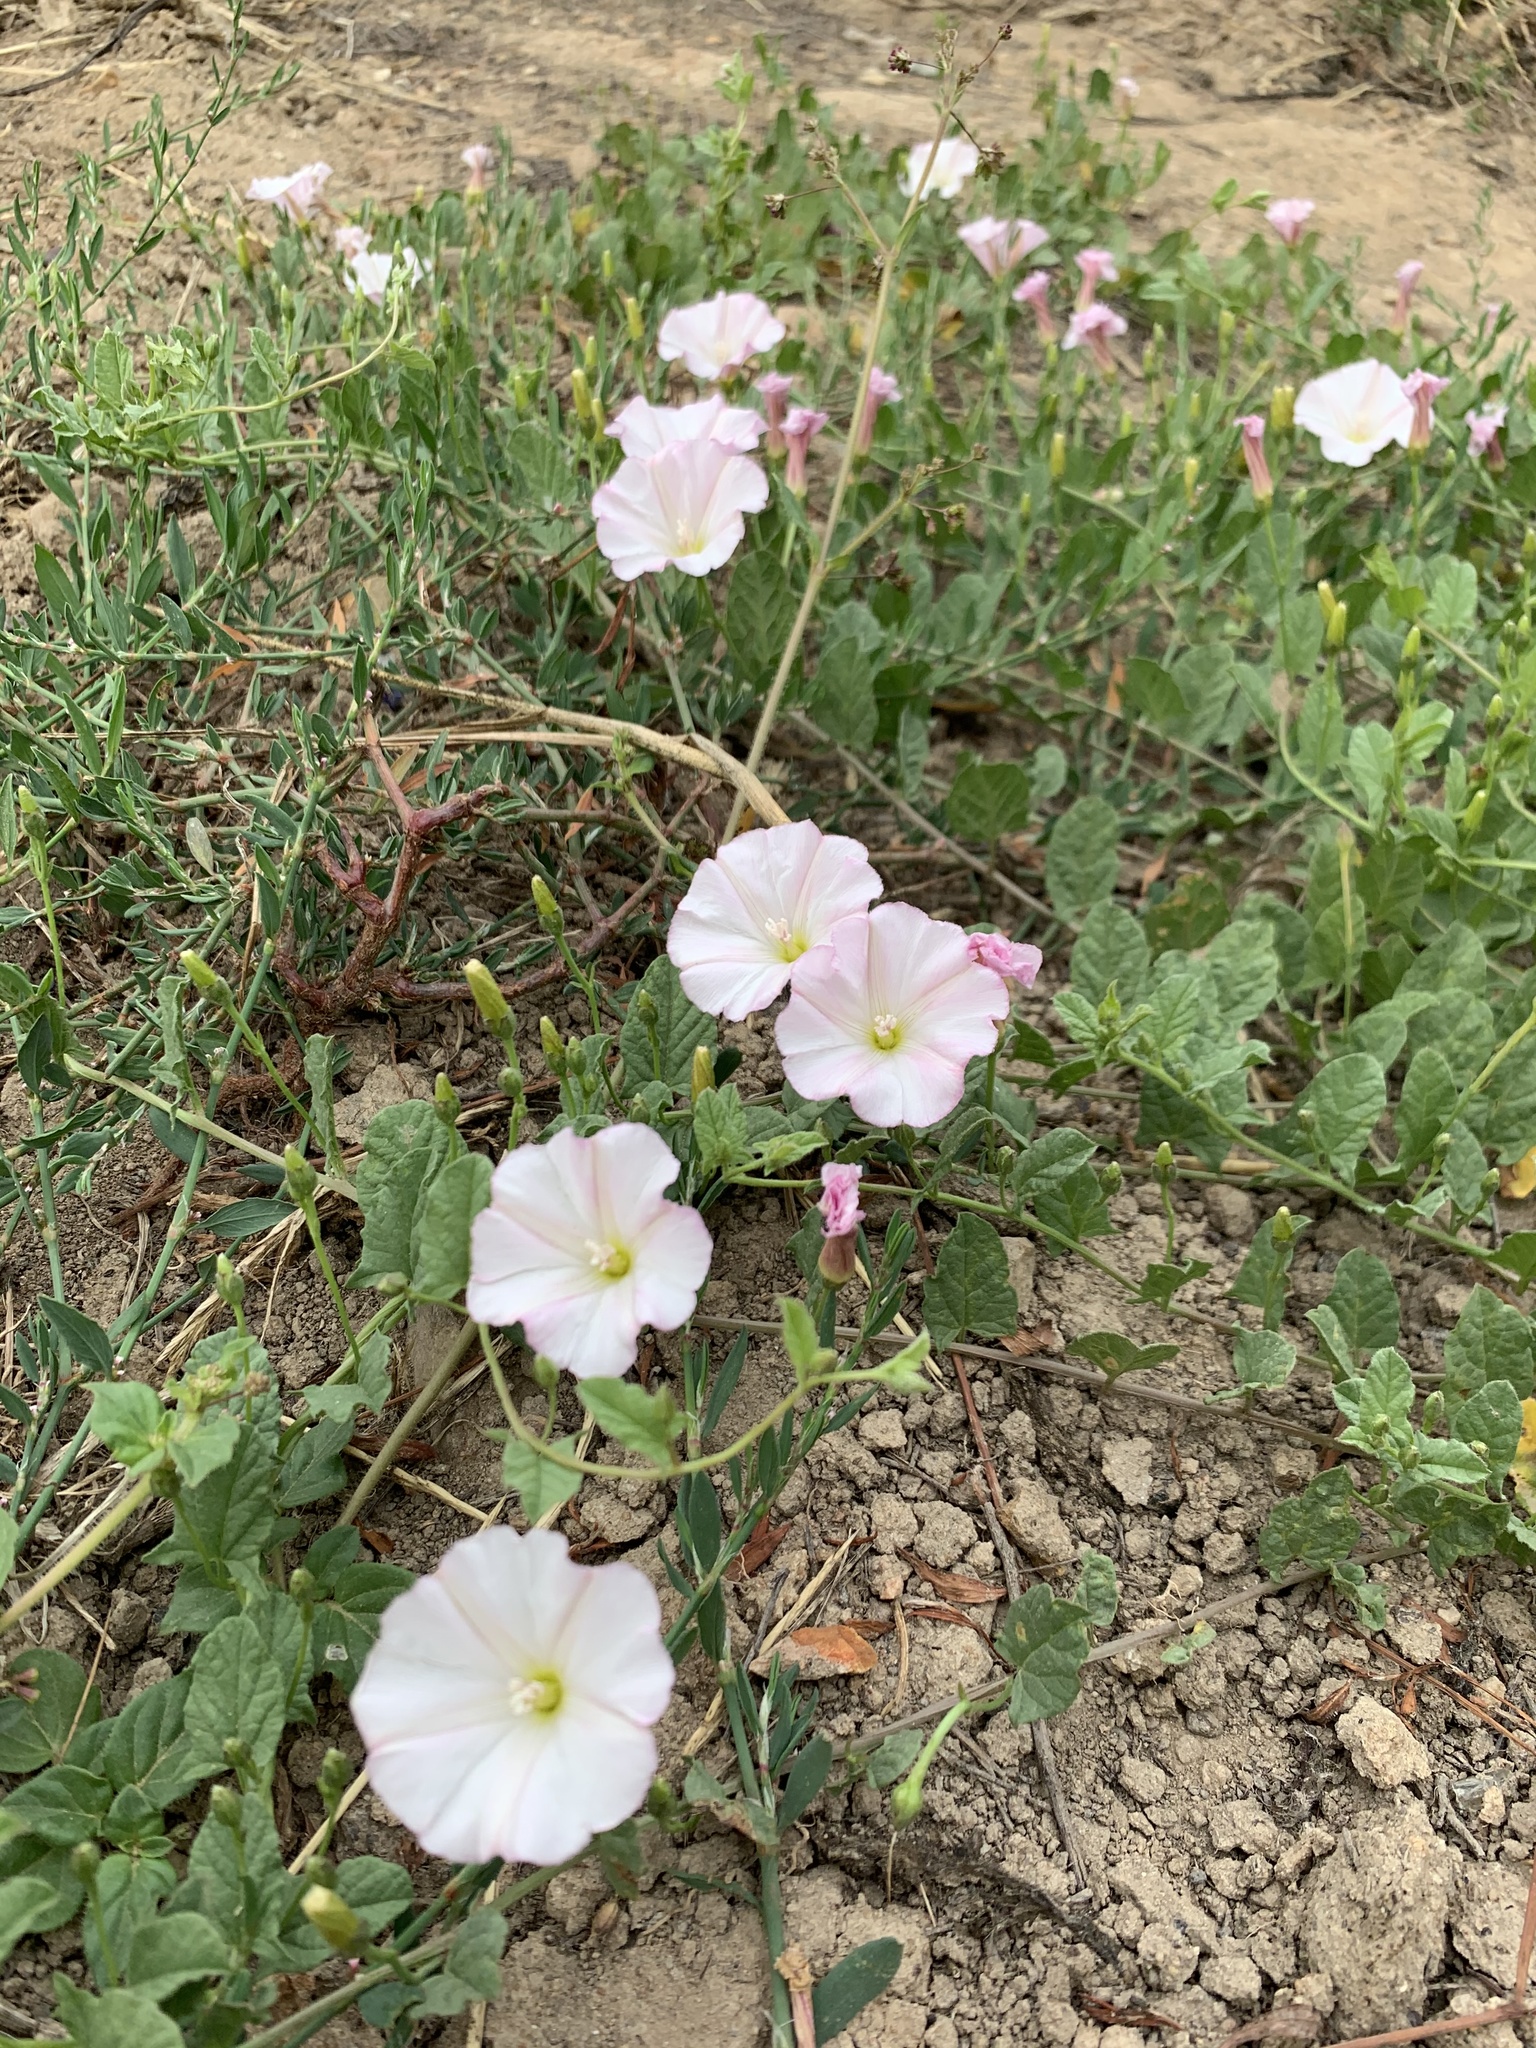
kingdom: Plantae
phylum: Tracheophyta
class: Magnoliopsida
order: Solanales
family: Convolvulaceae
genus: Convolvulus
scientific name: Convolvulus arvensis
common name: Field bindweed
